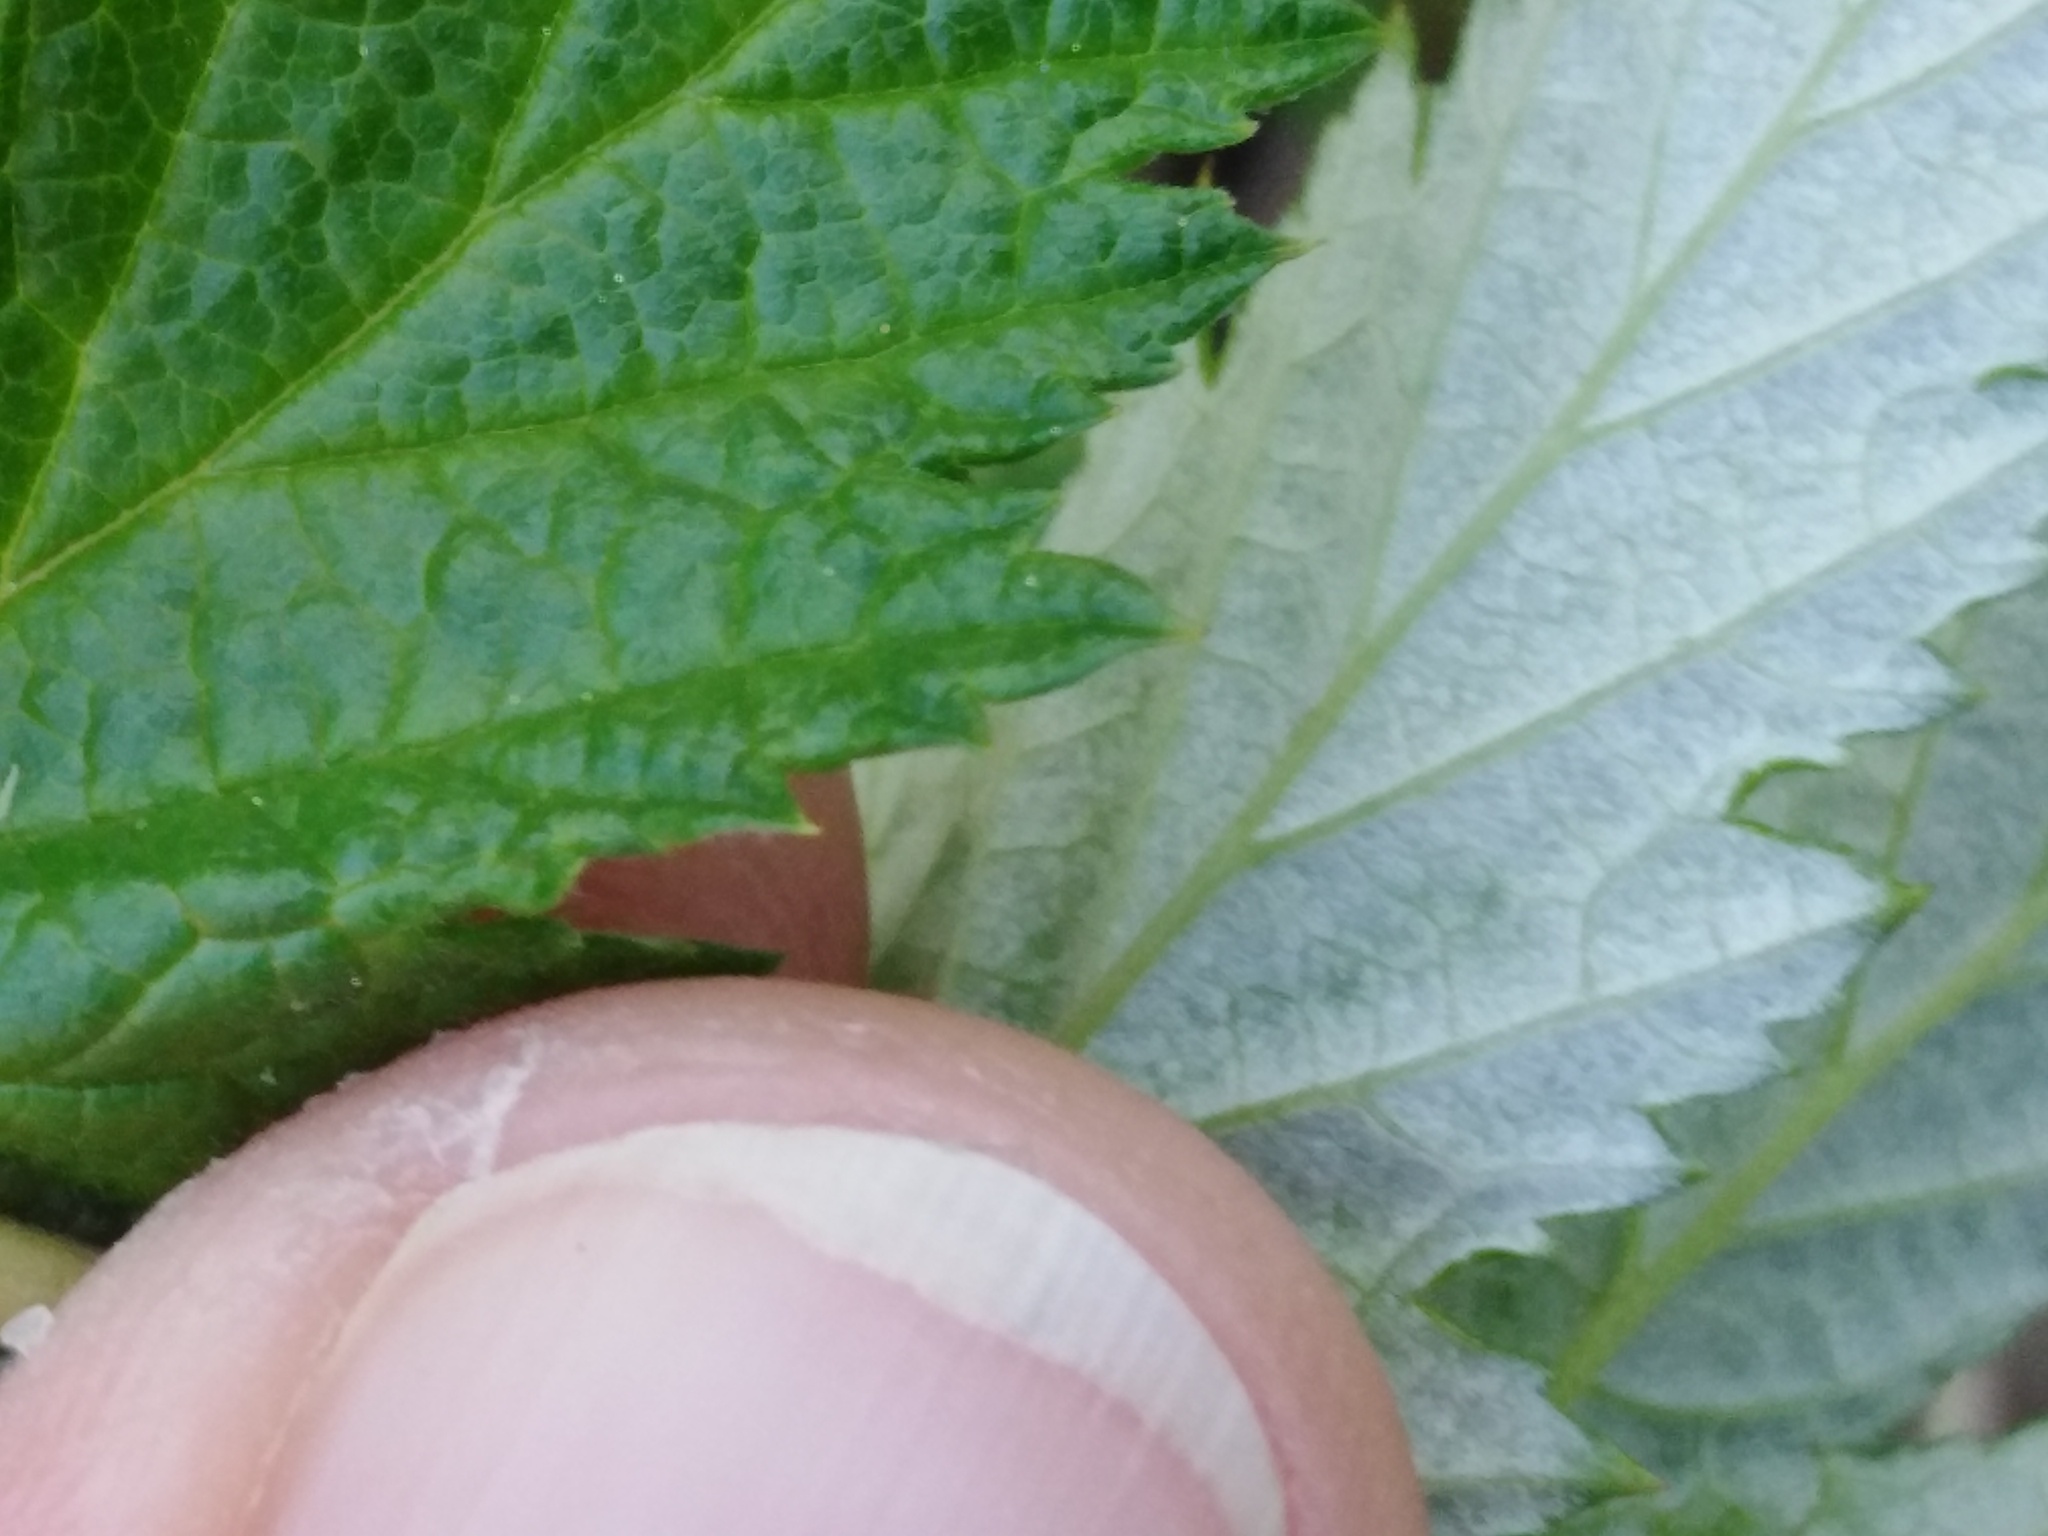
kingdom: Plantae
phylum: Tracheophyta
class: Magnoliopsida
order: Rosales
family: Rosaceae
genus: Filipendula
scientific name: Filipendula ulmaria
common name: Meadowsweet
